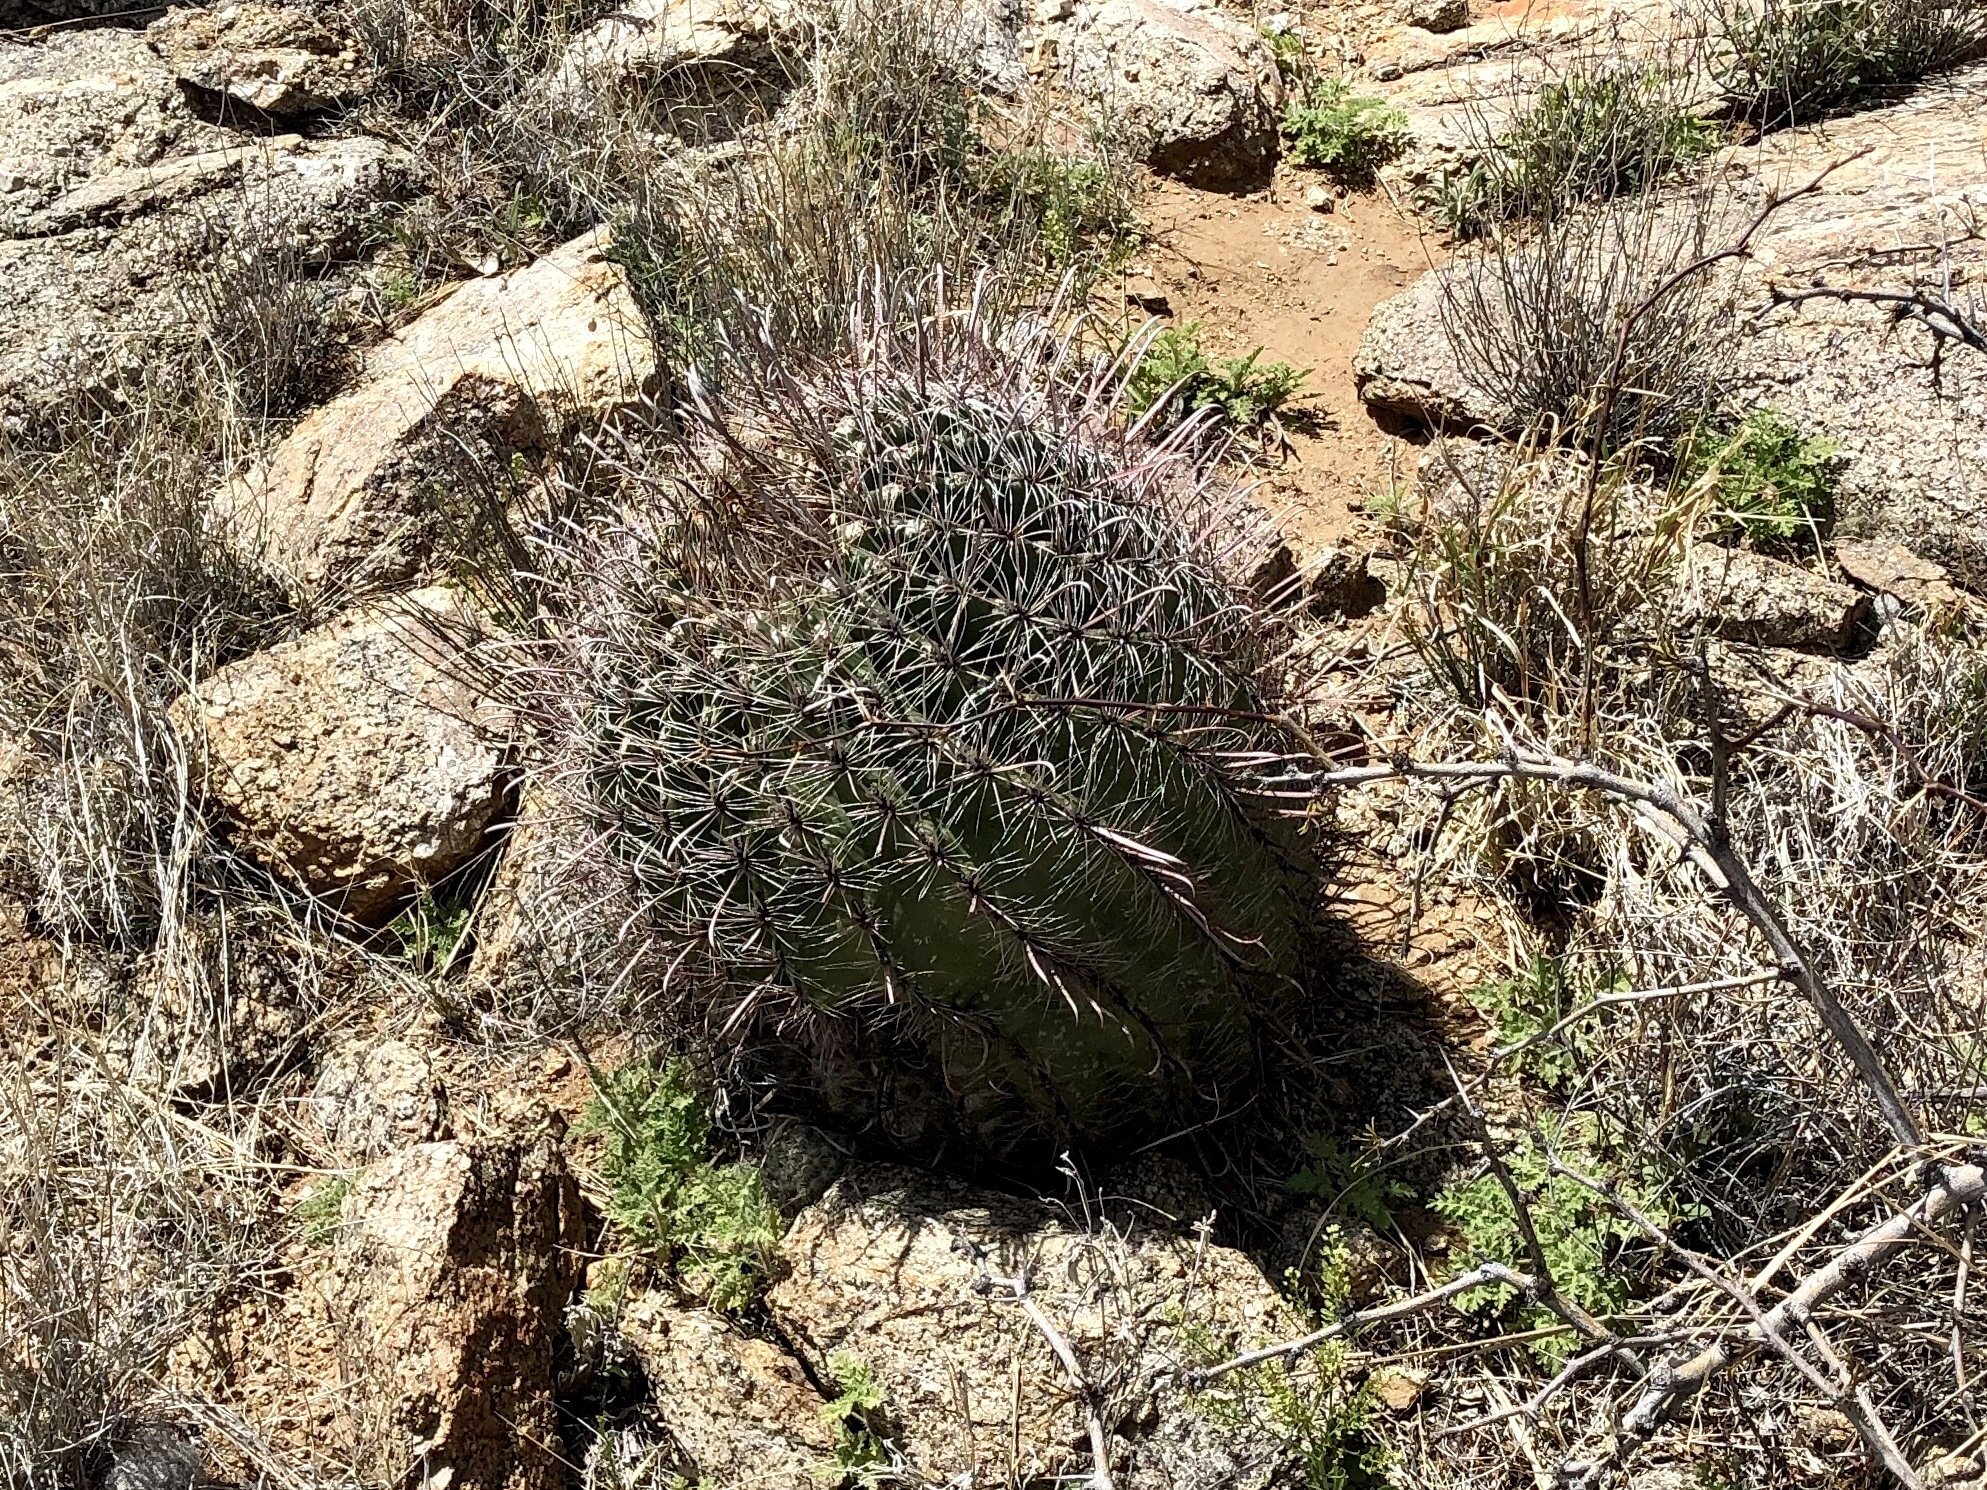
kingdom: Plantae
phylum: Tracheophyta
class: Magnoliopsida
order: Caryophyllales
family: Cactaceae
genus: Ferocactus
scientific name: Ferocactus wislizeni
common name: Candy barrel cactus
